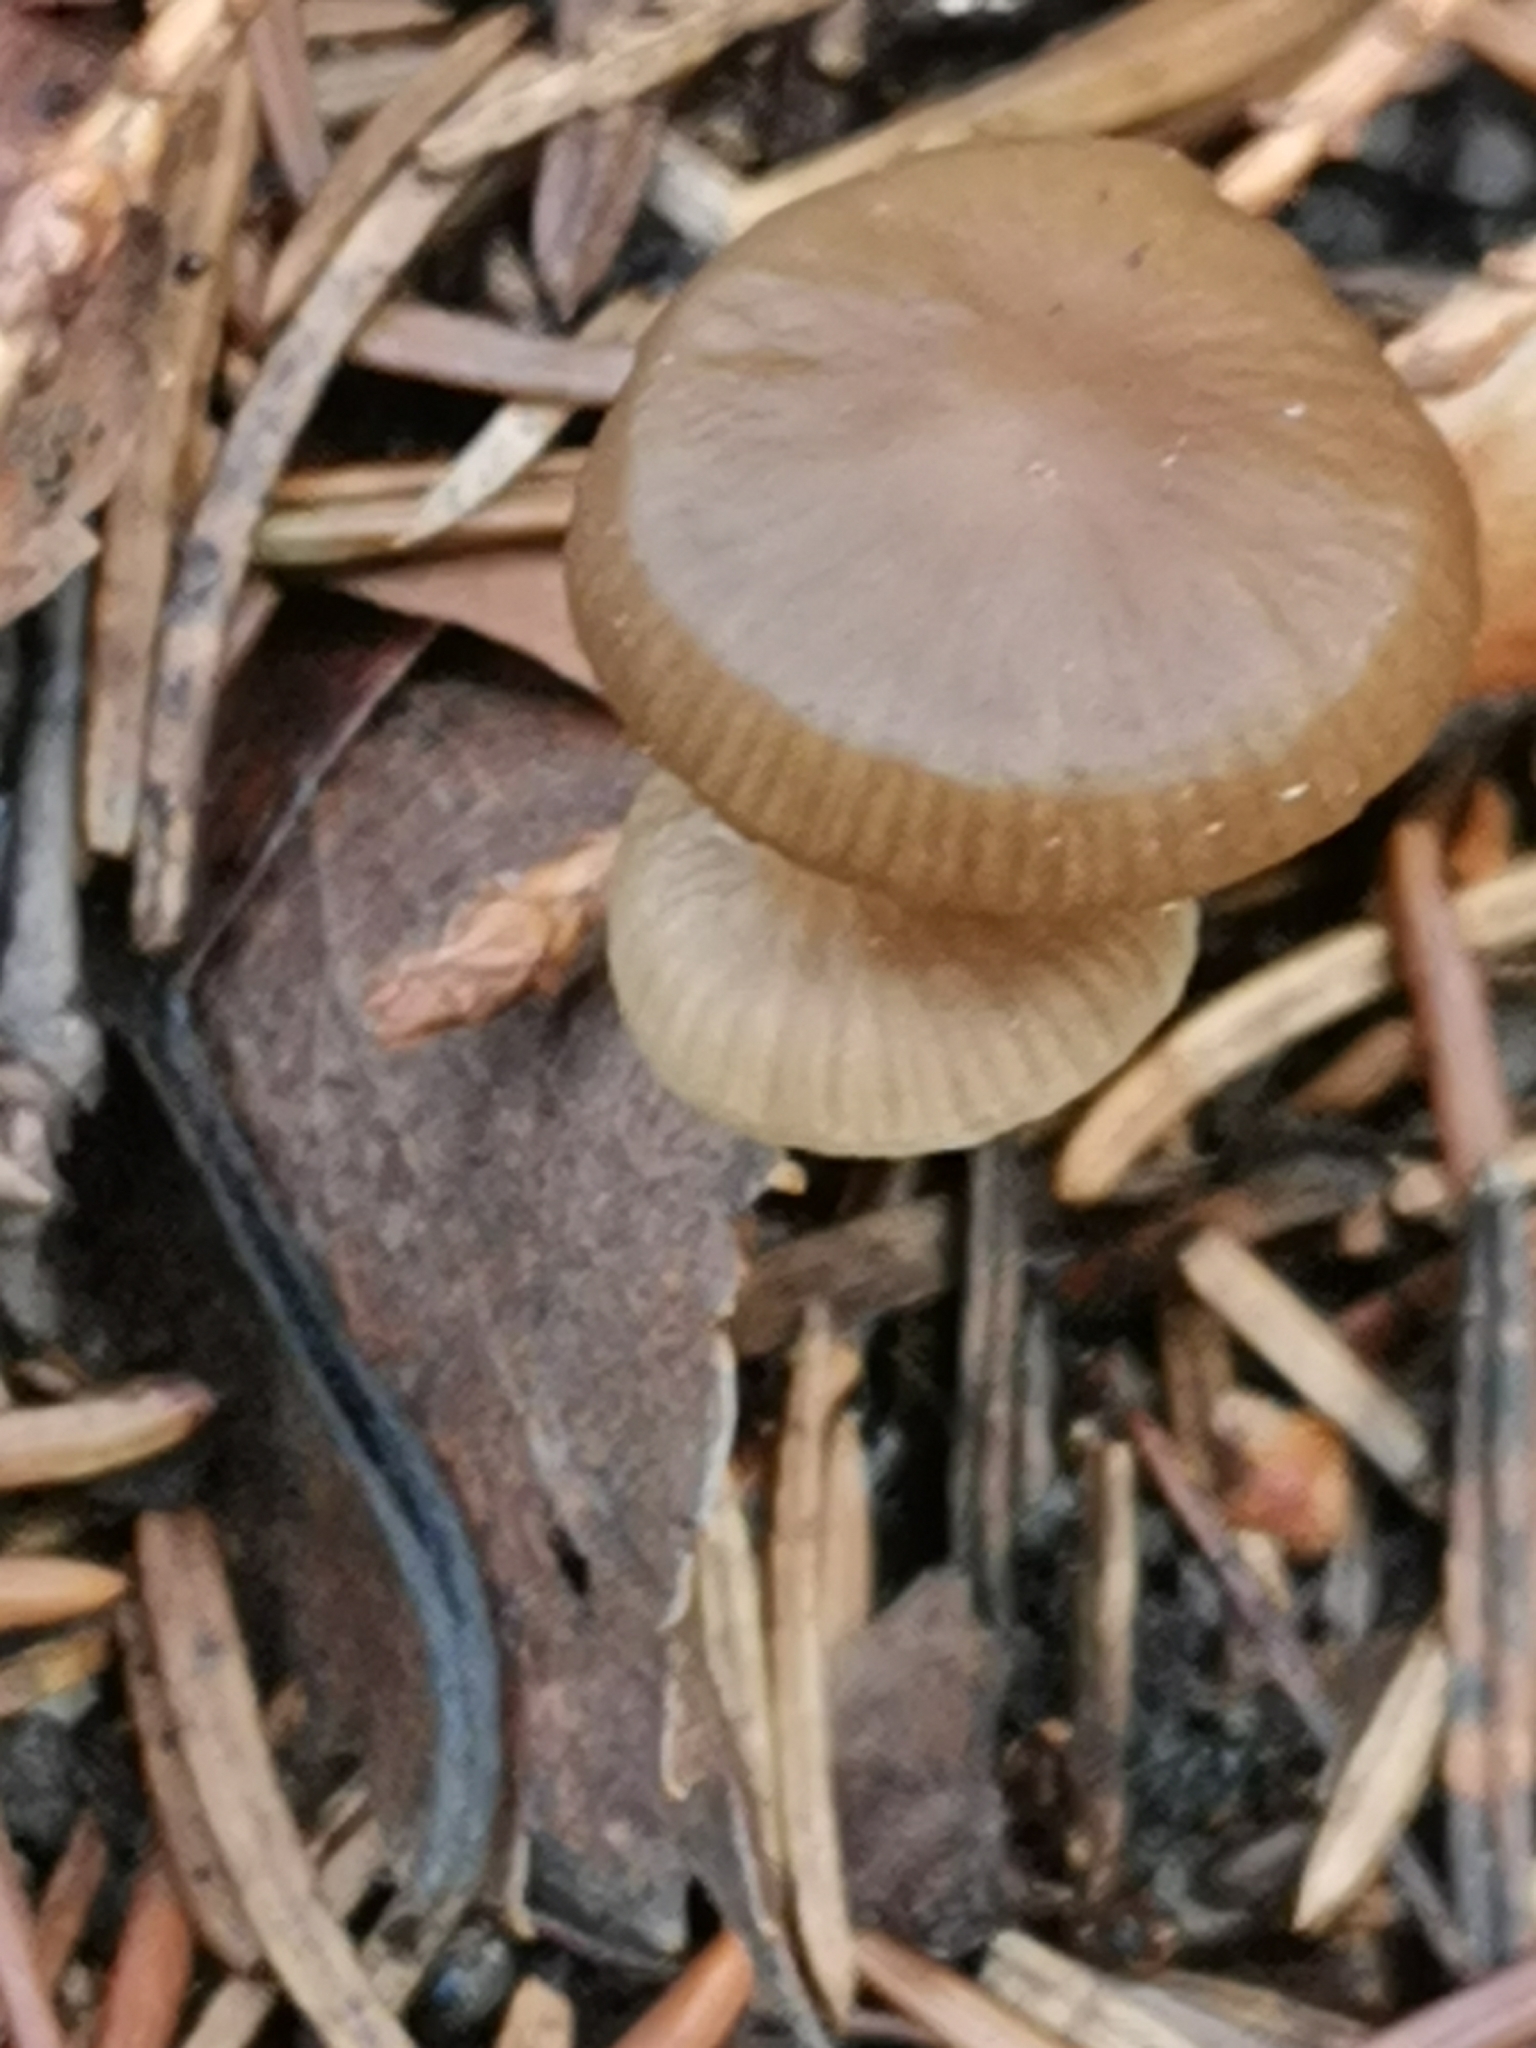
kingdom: Fungi
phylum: Basidiomycota
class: Agaricomycetes
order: Agaricales
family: Physalacriaceae
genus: Strobilurus
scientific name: Strobilurus esculentus
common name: Sprucecone cap
